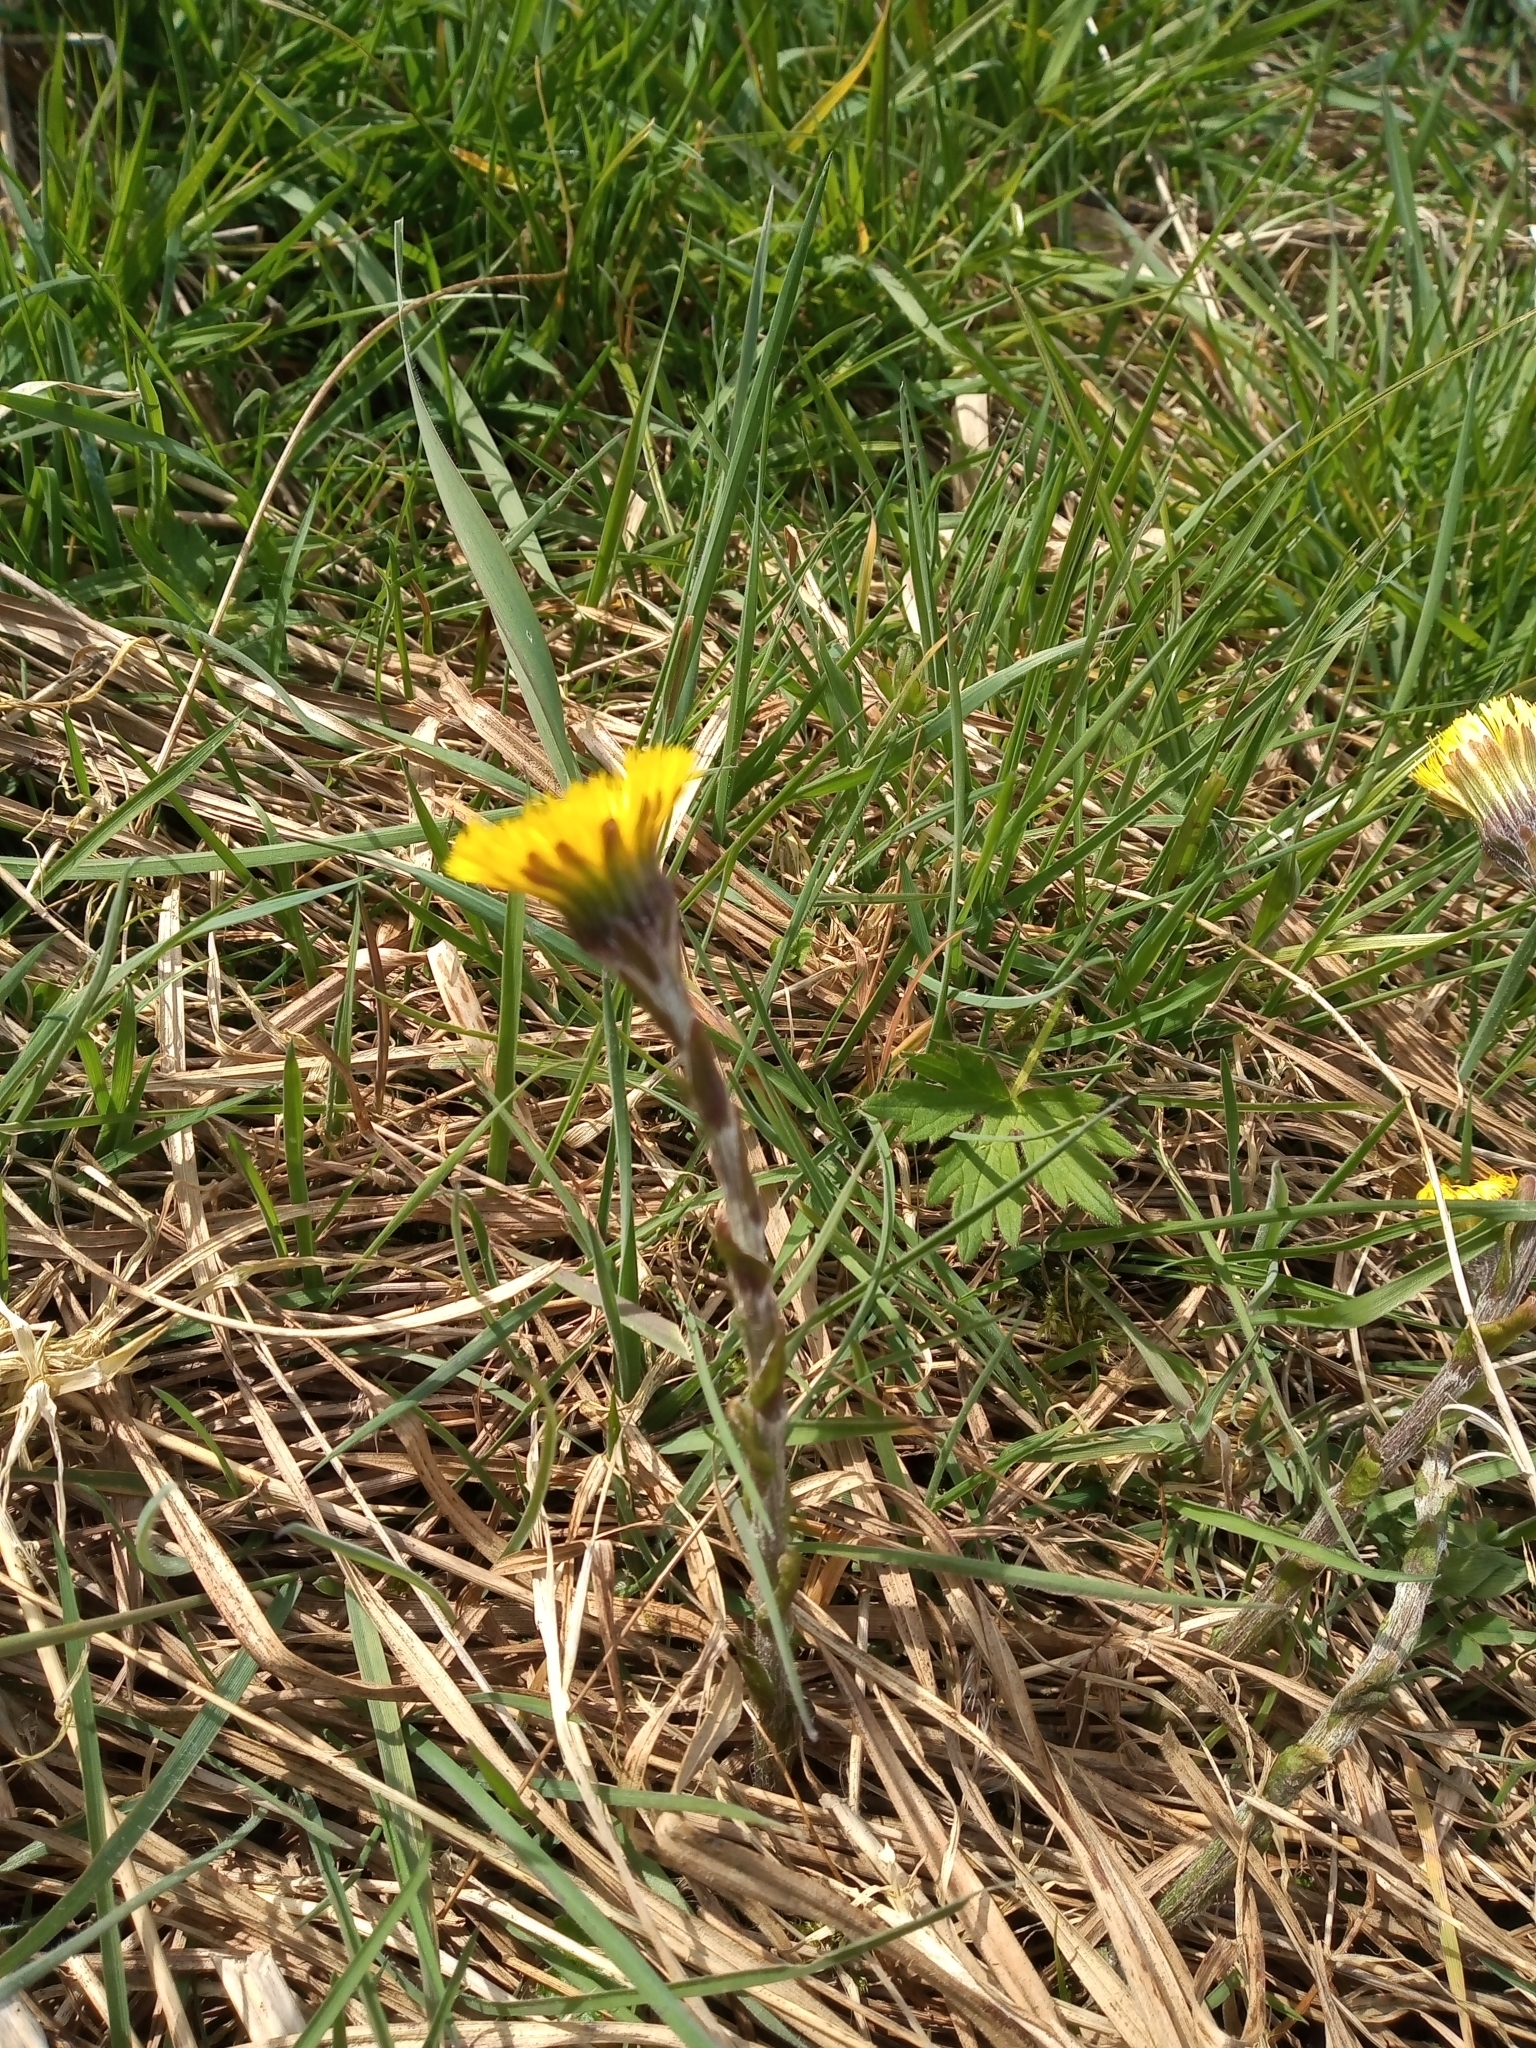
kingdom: Plantae
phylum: Tracheophyta
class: Magnoliopsida
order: Asterales
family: Asteraceae
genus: Tussilago
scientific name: Tussilago farfara
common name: Coltsfoot
